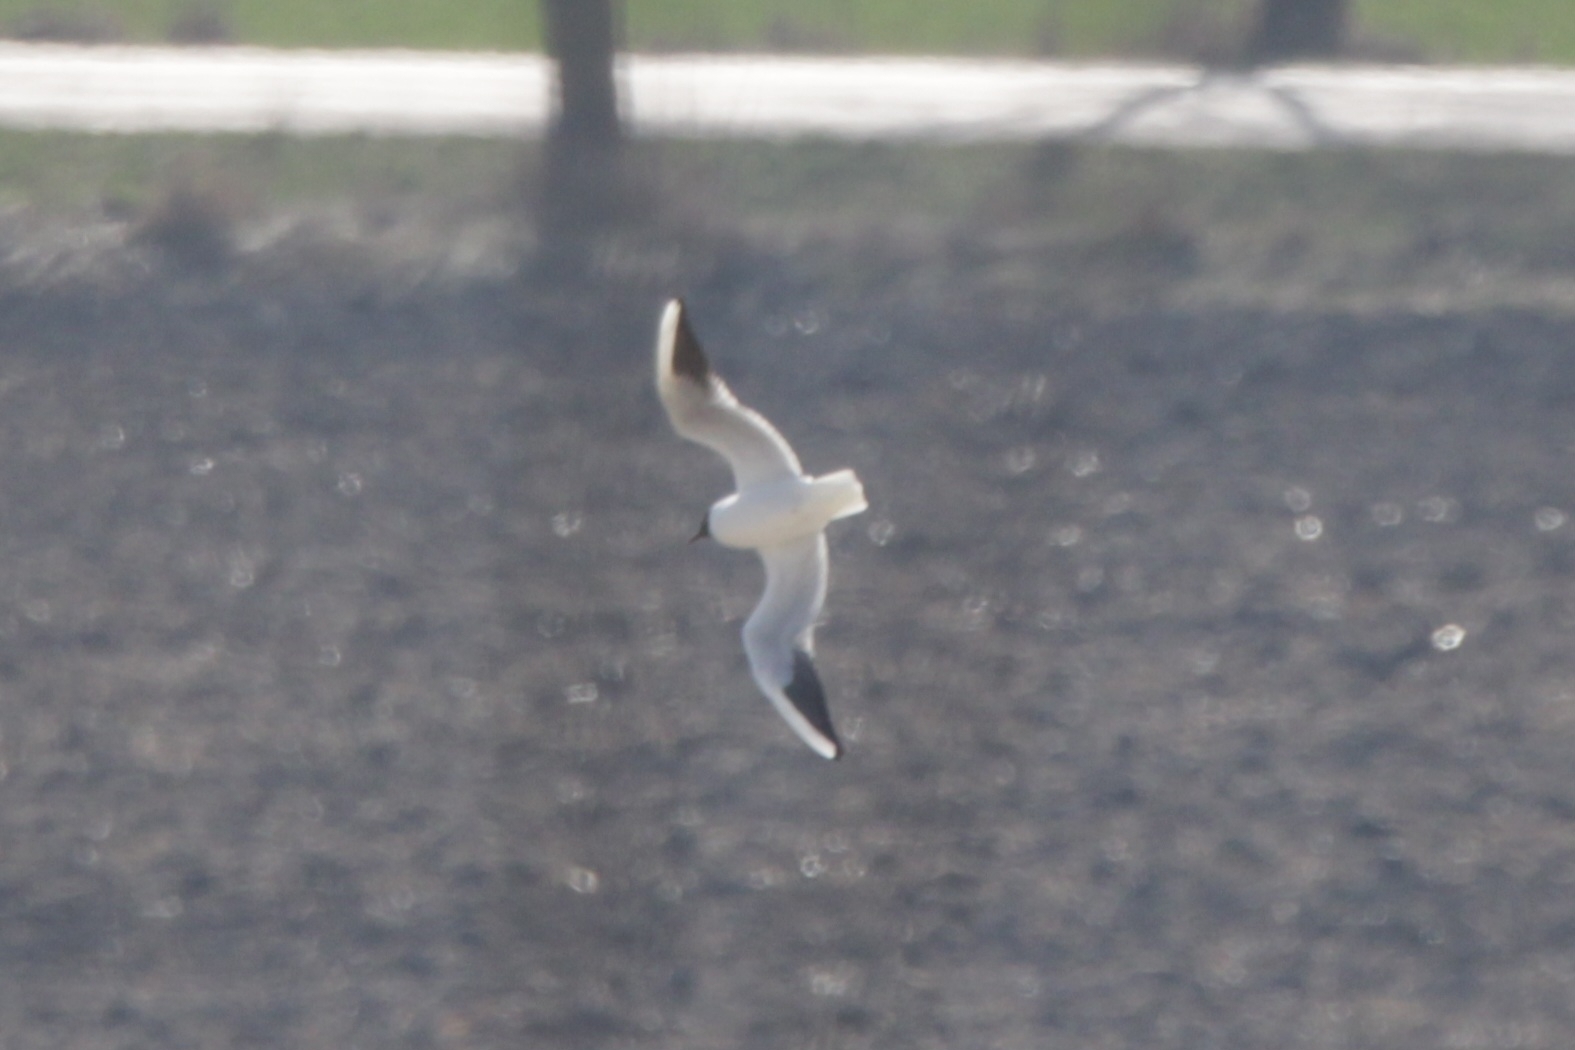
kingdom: Animalia
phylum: Chordata
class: Aves
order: Charadriiformes
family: Laridae
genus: Chroicocephalus
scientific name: Chroicocephalus ridibundus
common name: Black-headed gull
